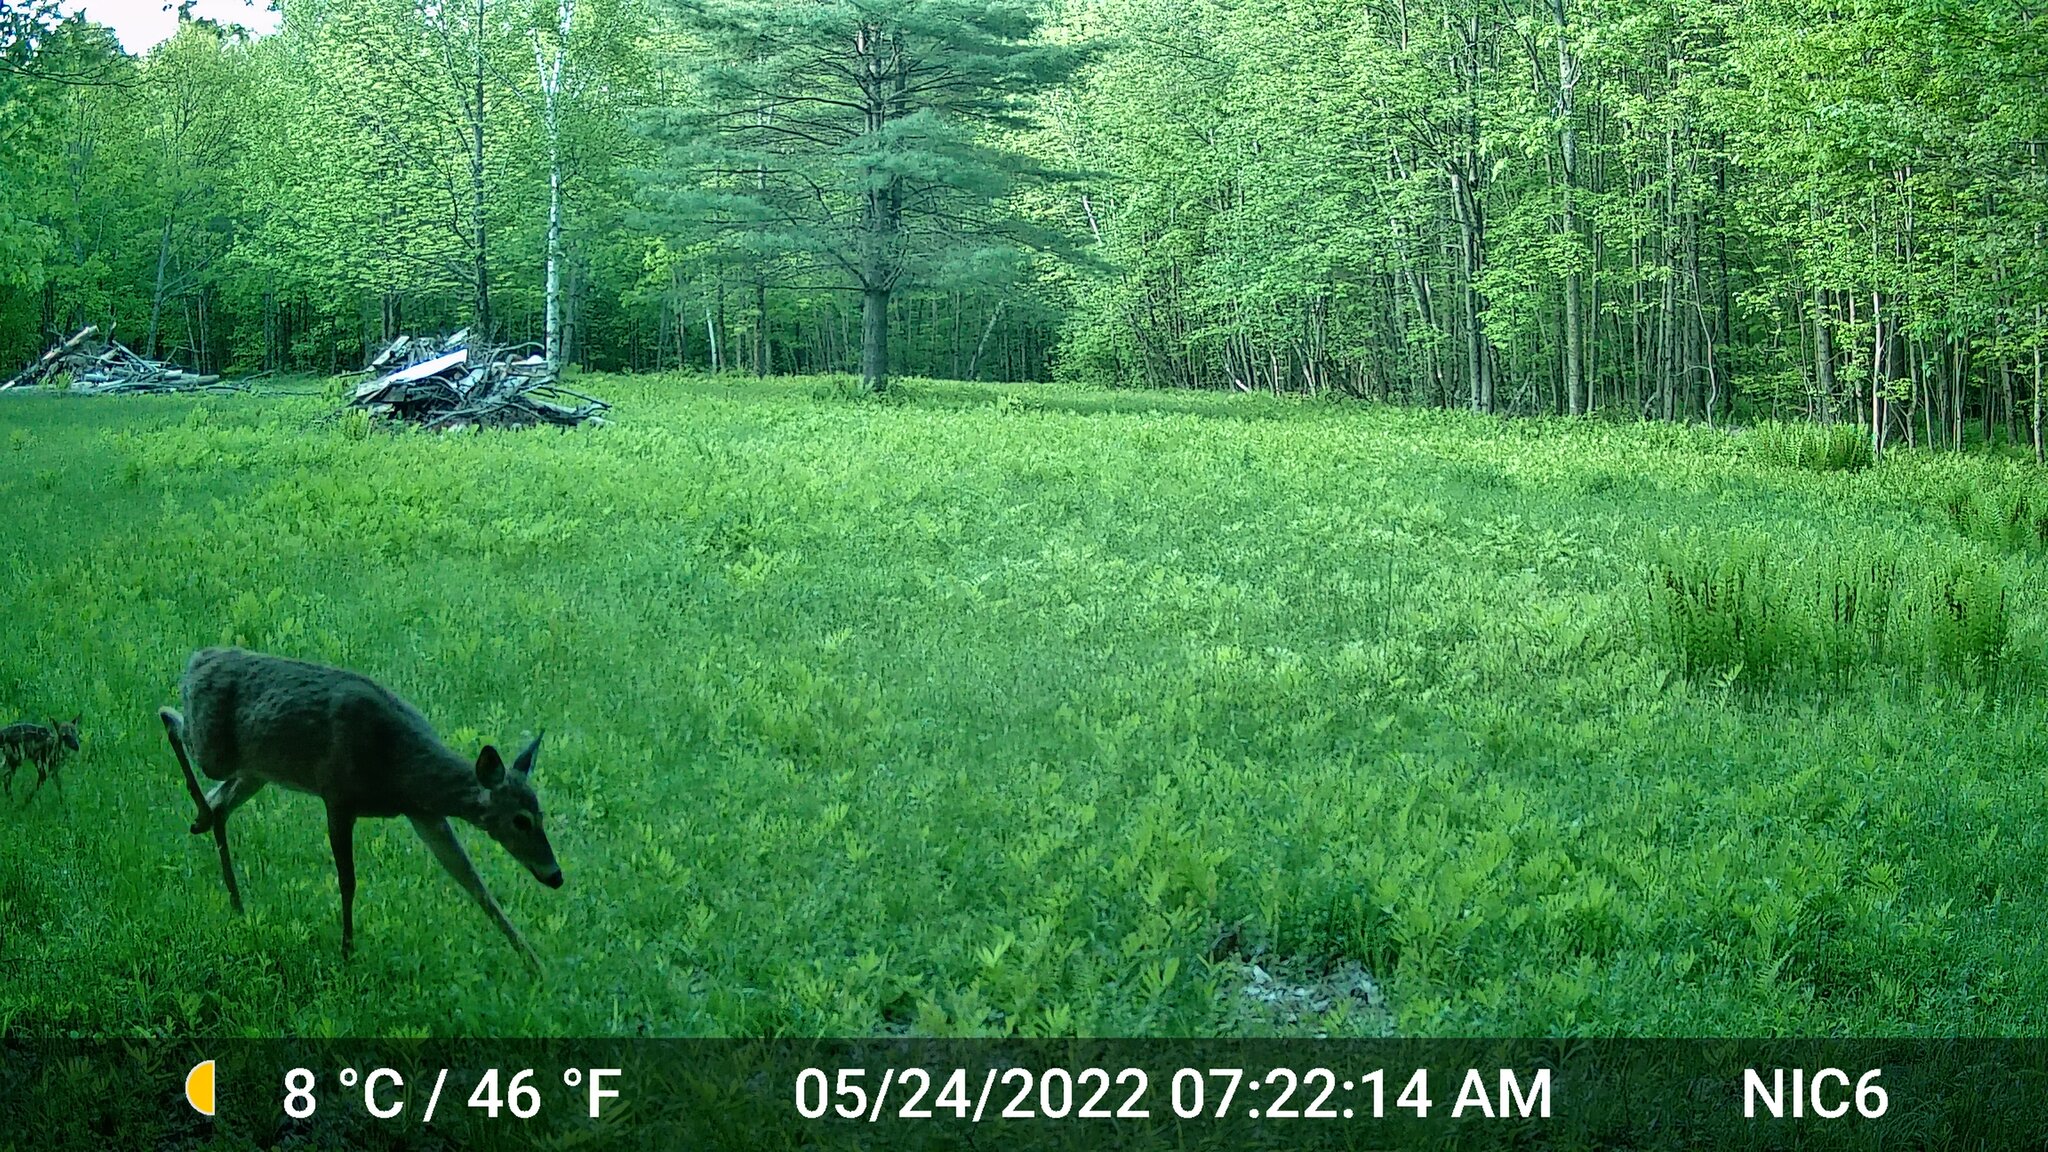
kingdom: Animalia
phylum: Chordata
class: Mammalia
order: Artiodactyla
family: Cervidae
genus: Odocoileus
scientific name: Odocoileus virginianus
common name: White-tailed deer
